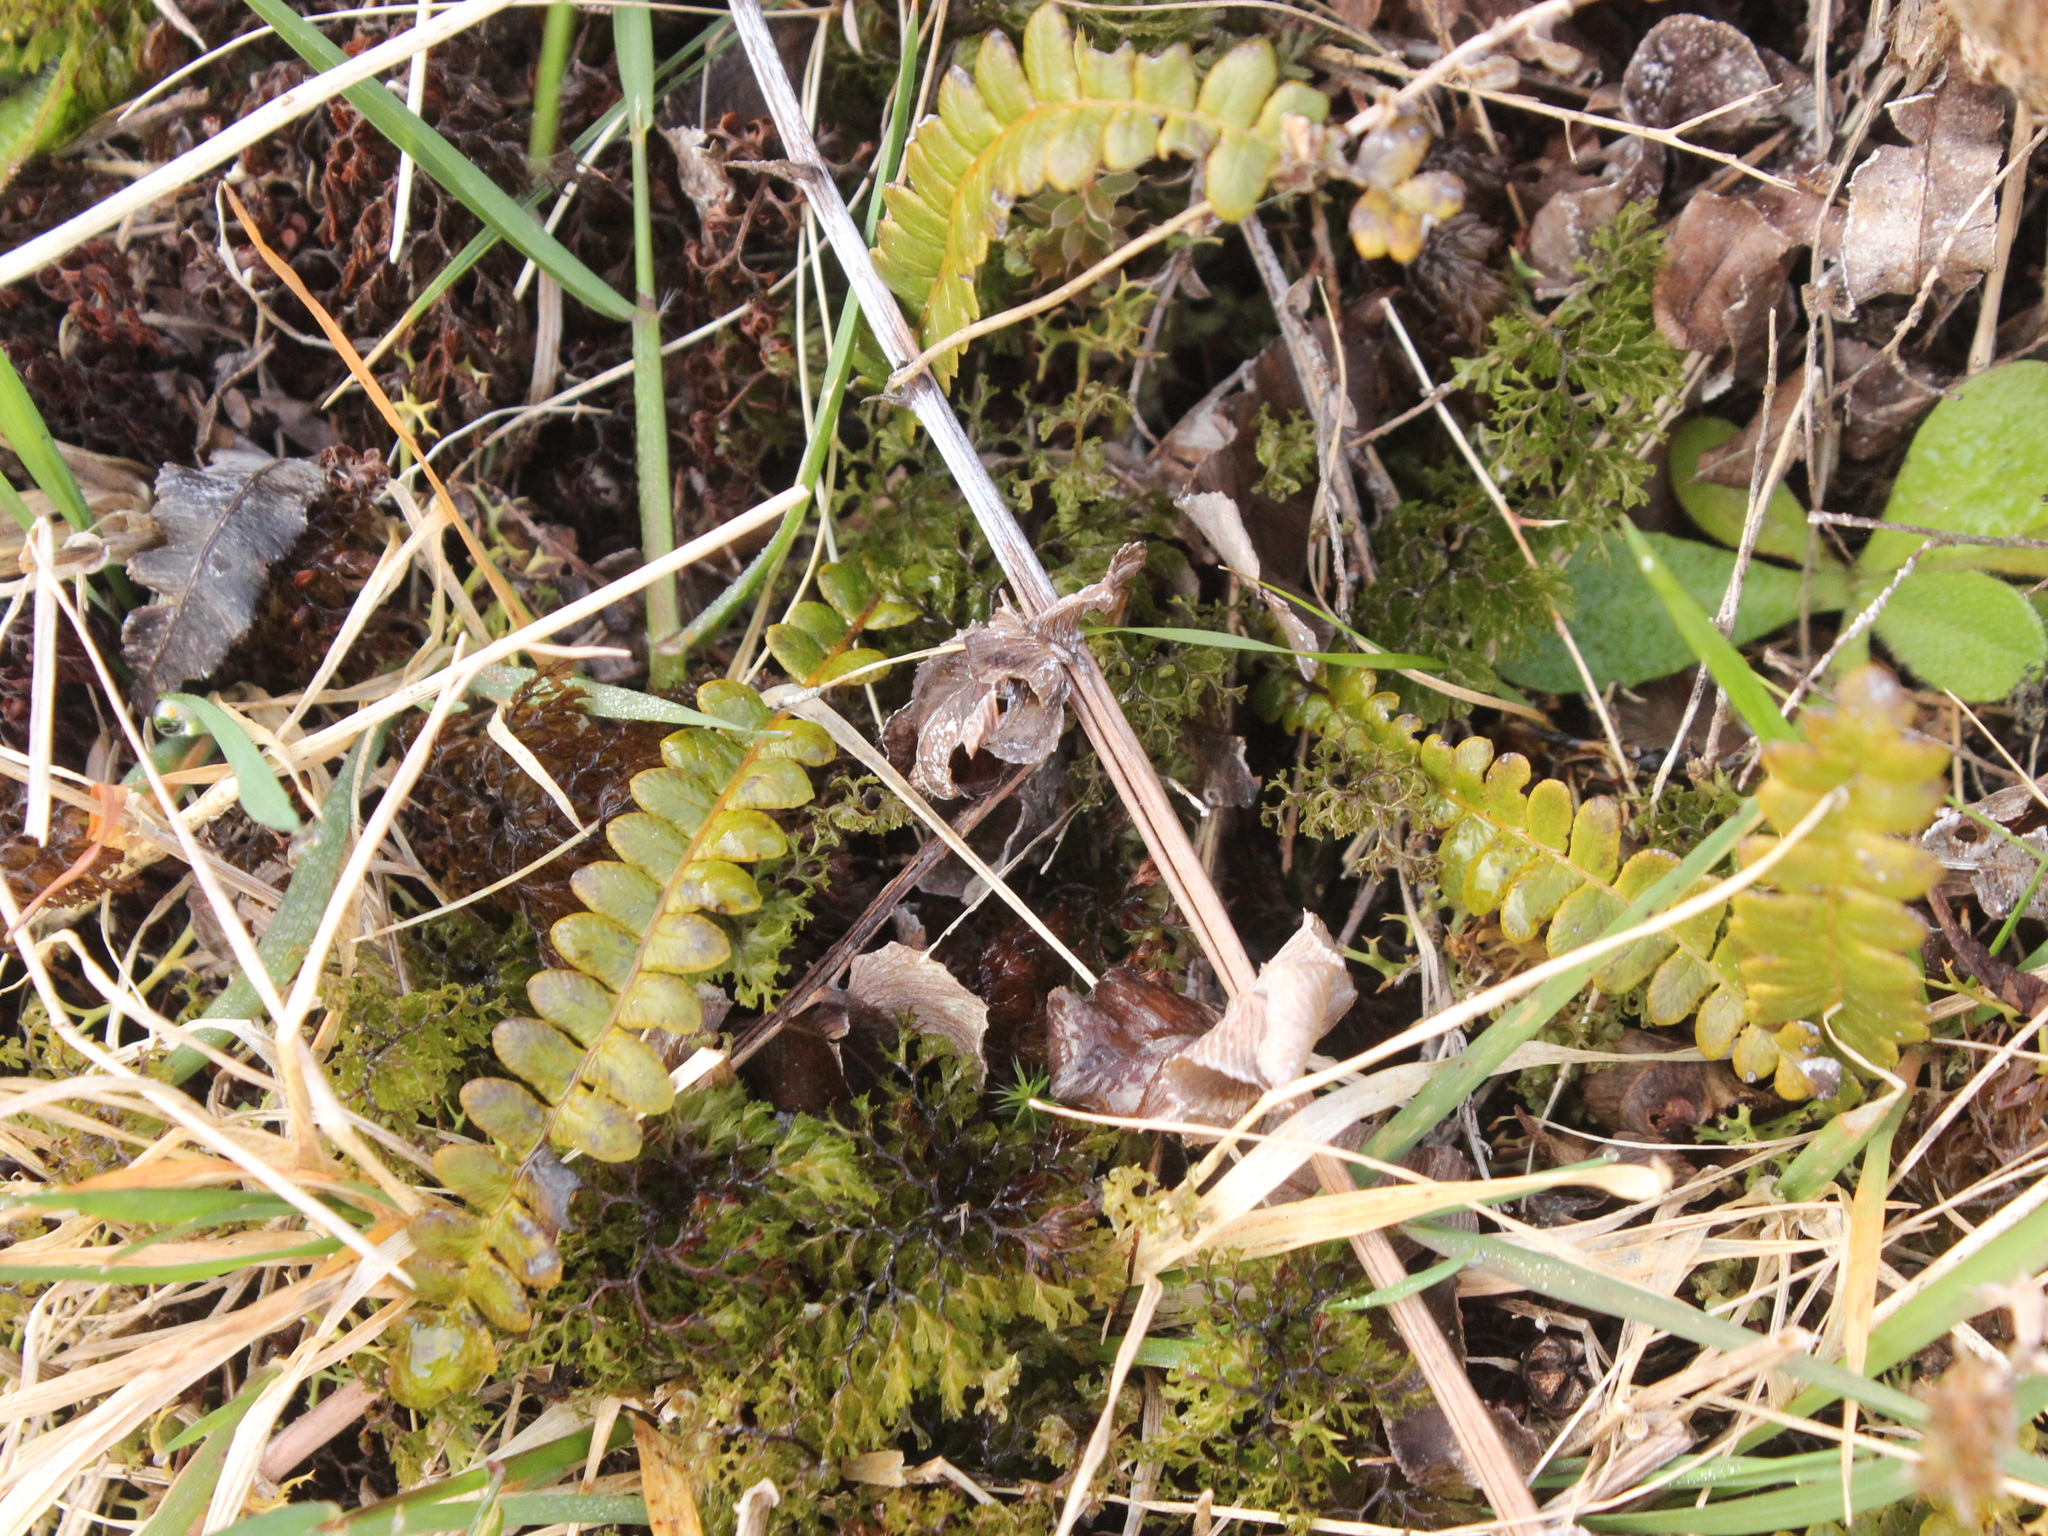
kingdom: Plantae
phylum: Tracheophyta
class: Polypodiopsida
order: Polypodiales
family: Blechnaceae
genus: Austroblechnum
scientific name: Austroblechnum penna-marina
